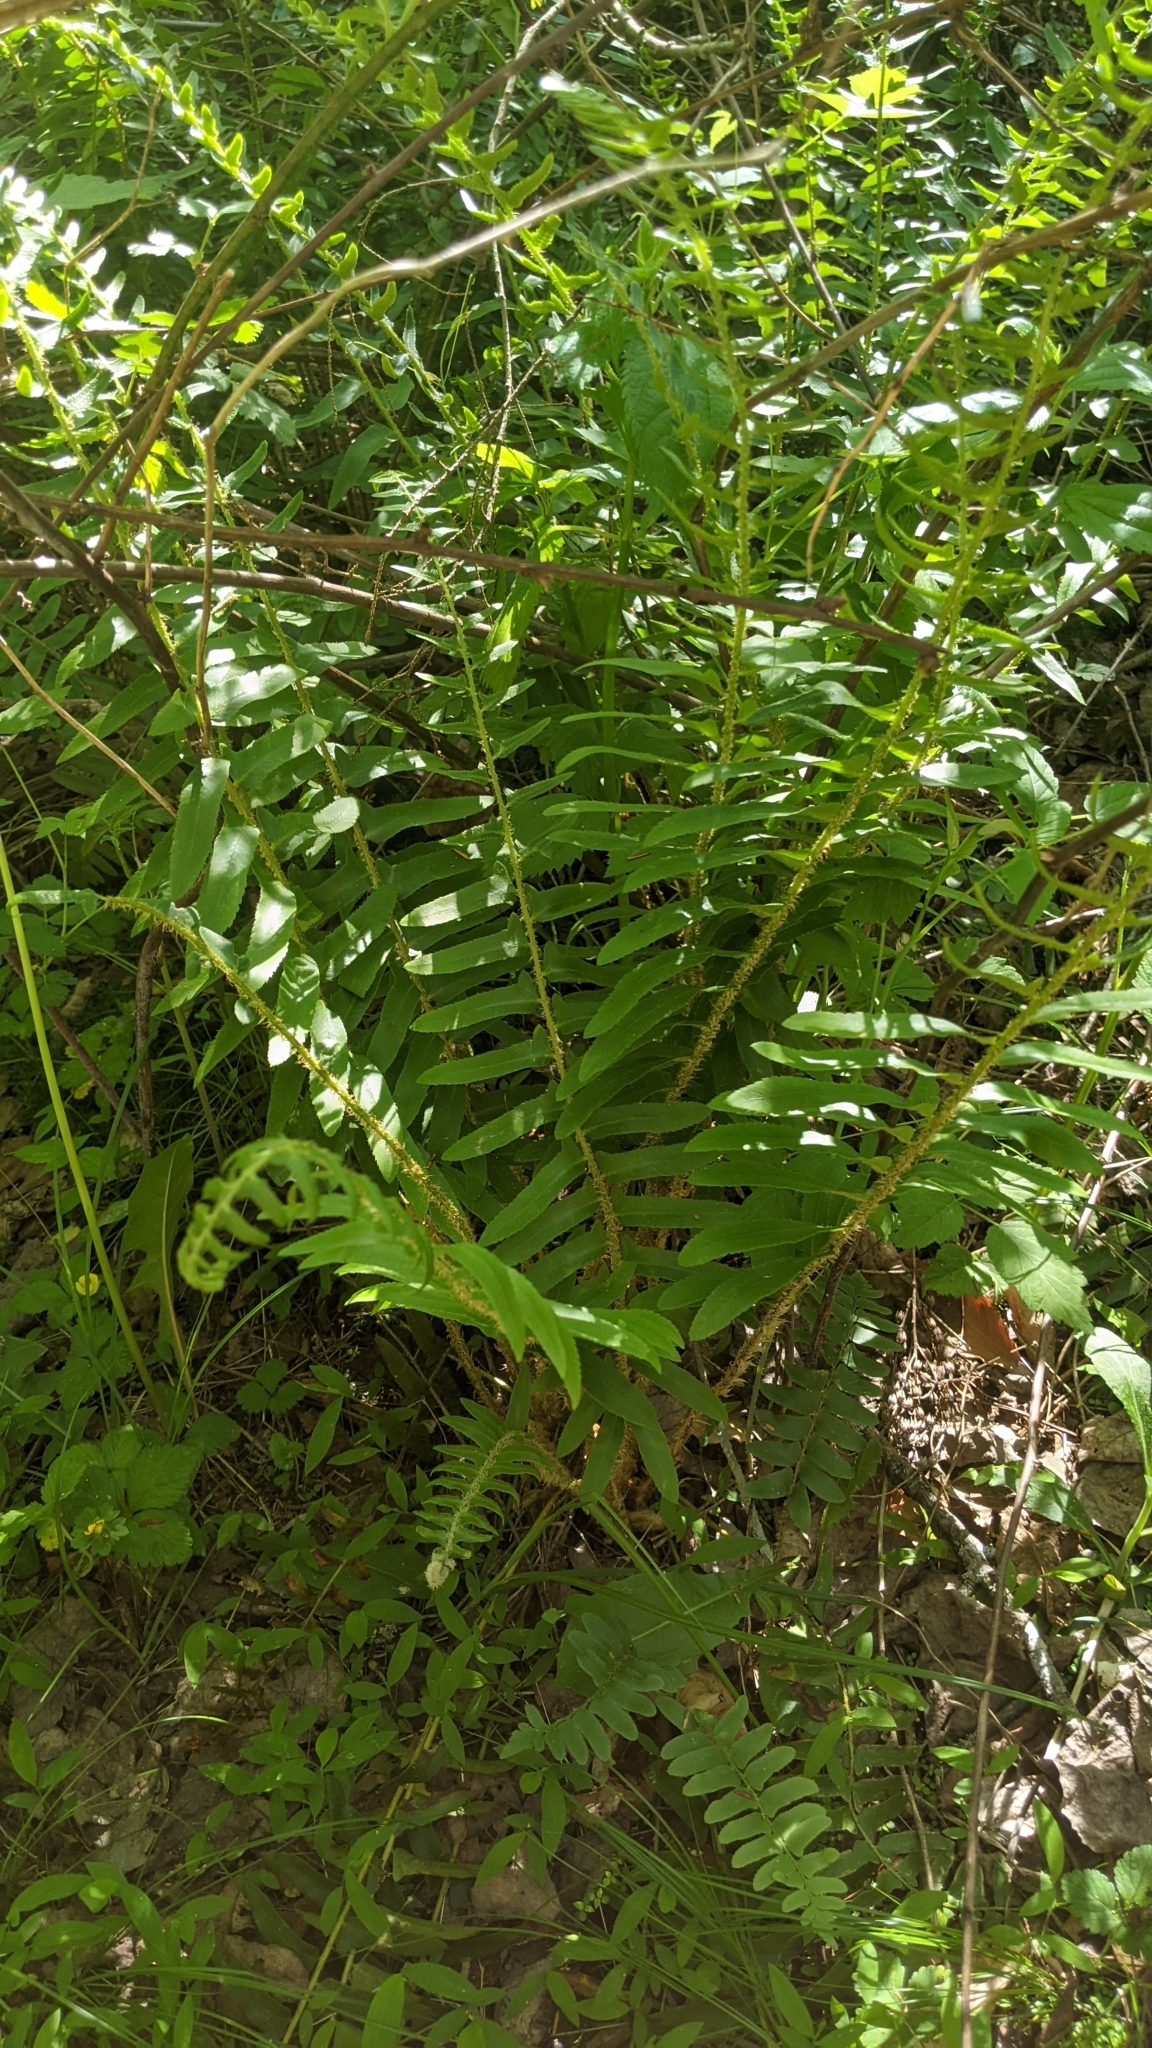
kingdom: Plantae
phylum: Tracheophyta
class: Polypodiopsida
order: Polypodiales
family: Dryopteridaceae
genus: Polystichum
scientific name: Polystichum acrostichoides
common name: Christmas fern
